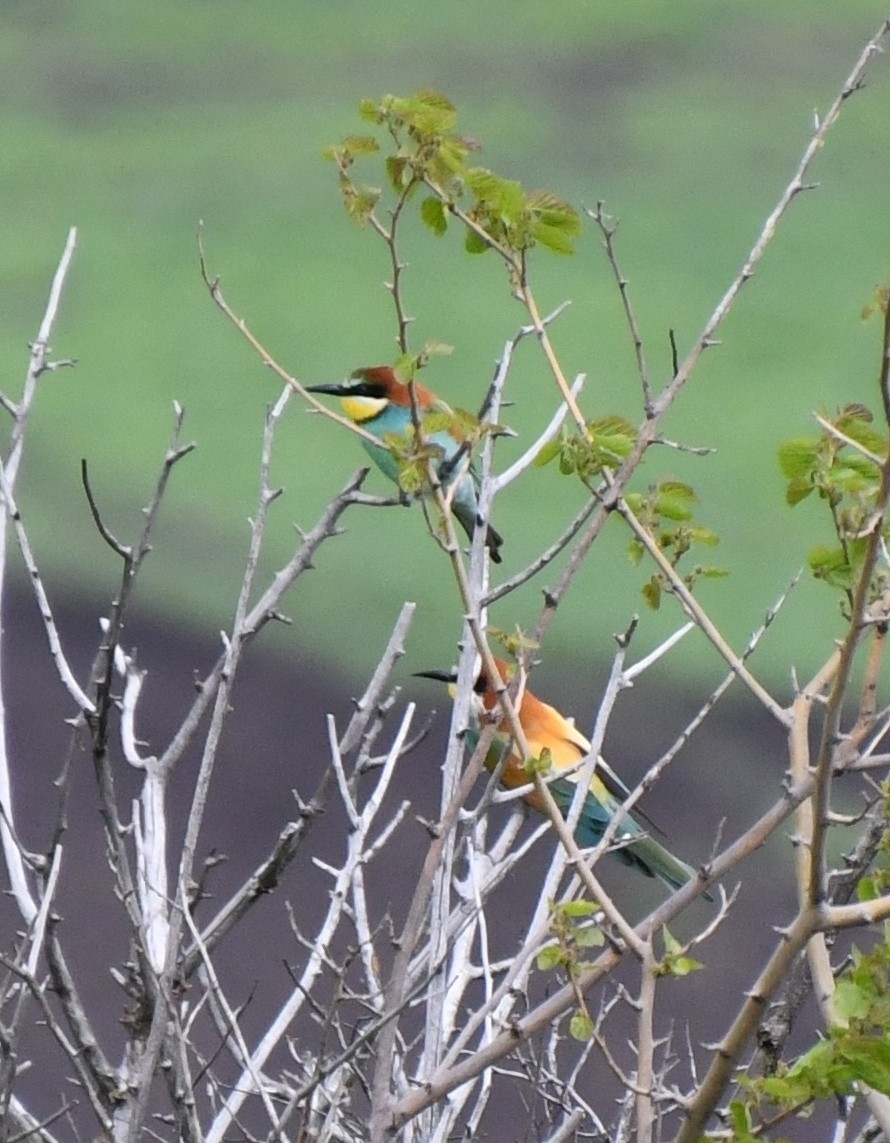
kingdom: Animalia
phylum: Chordata
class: Aves
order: Coraciiformes
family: Meropidae
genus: Merops
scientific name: Merops apiaster
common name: European bee-eater
